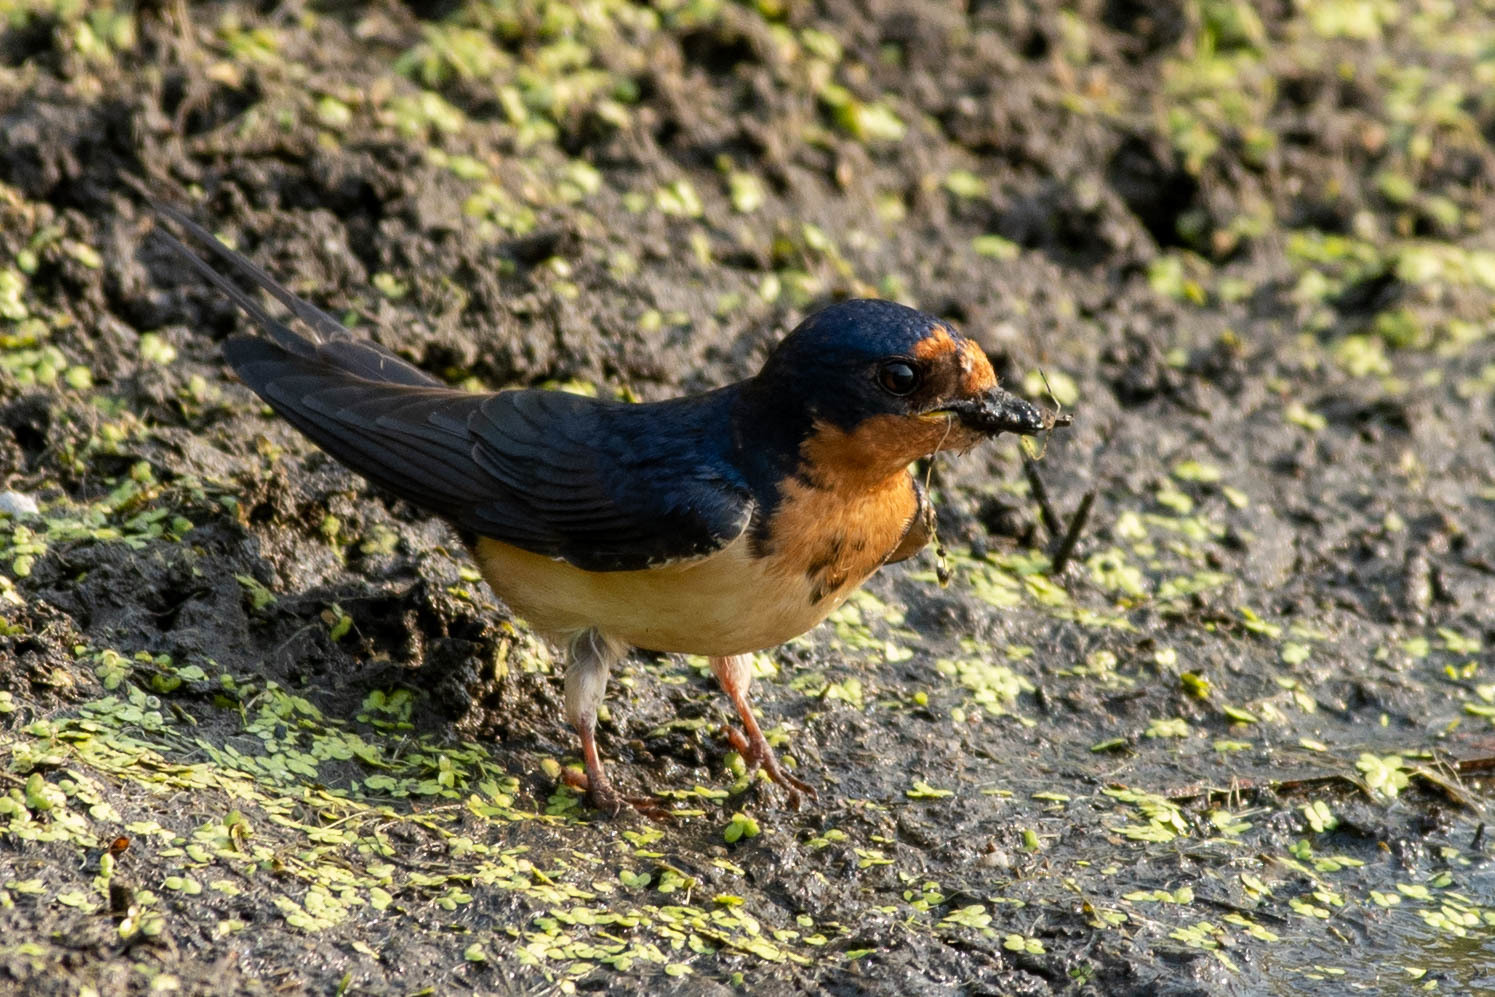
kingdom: Animalia
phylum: Chordata
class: Aves
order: Passeriformes
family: Hirundinidae
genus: Hirundo
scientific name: Hirundo rustica
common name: Barn swallow
